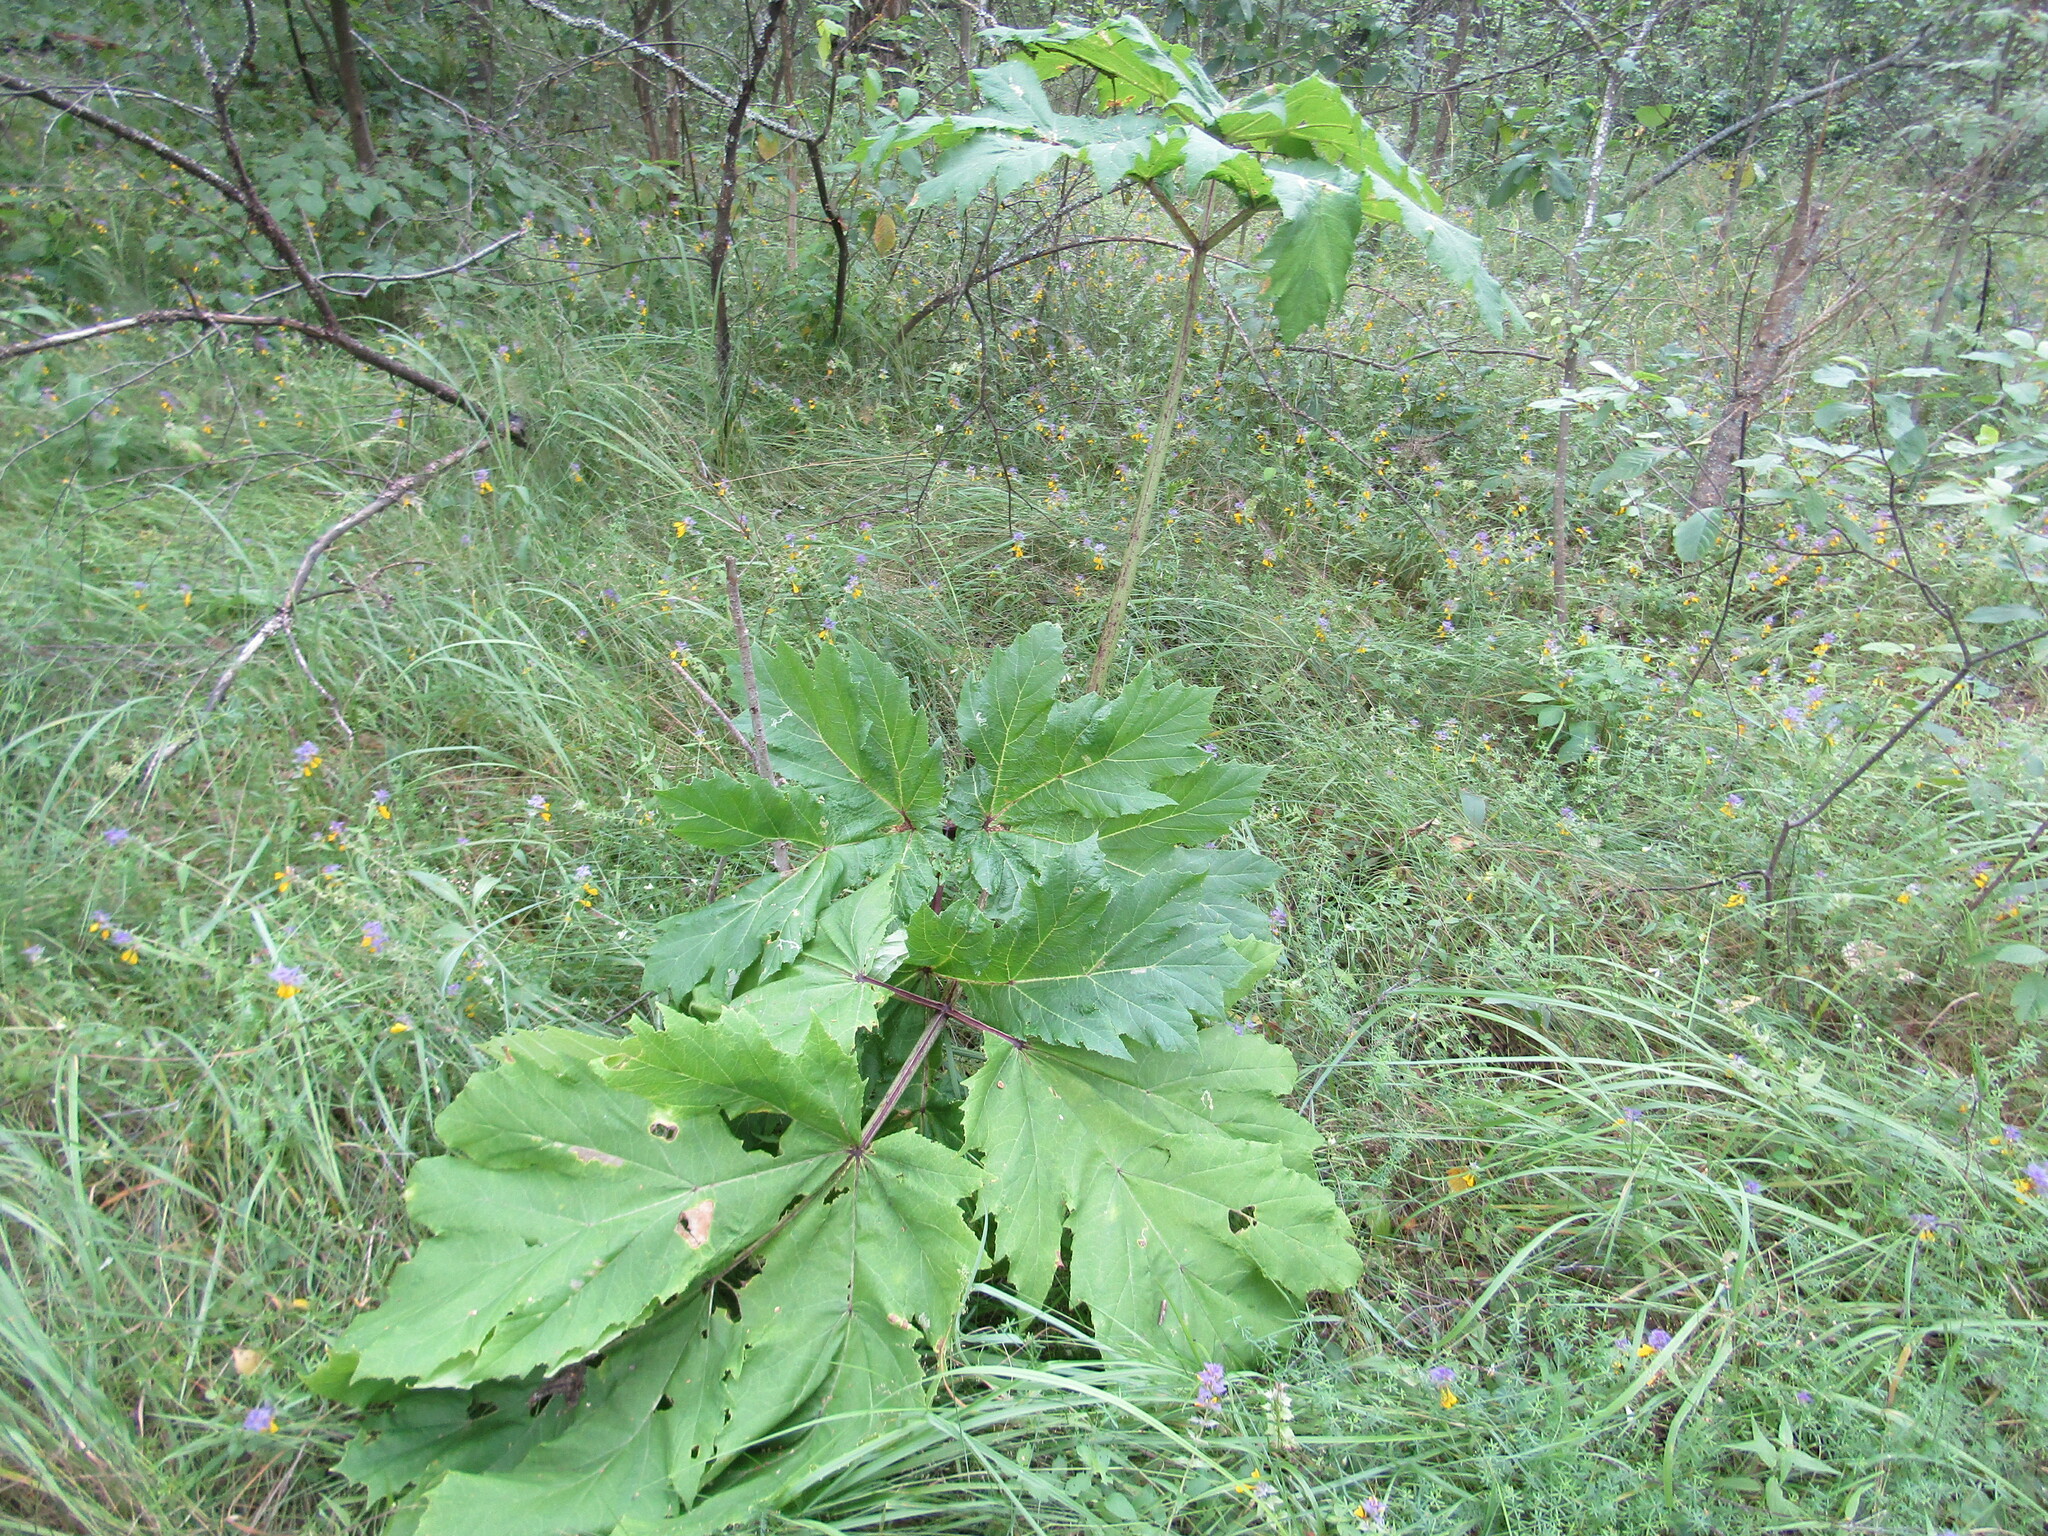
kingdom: Plantae
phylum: Tracheophyta
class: Magnoliopsida
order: Apiales
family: Apiaceae
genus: Heracleum
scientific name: Heracleum sosnowskyi
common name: Sosnowsky's hogweed
